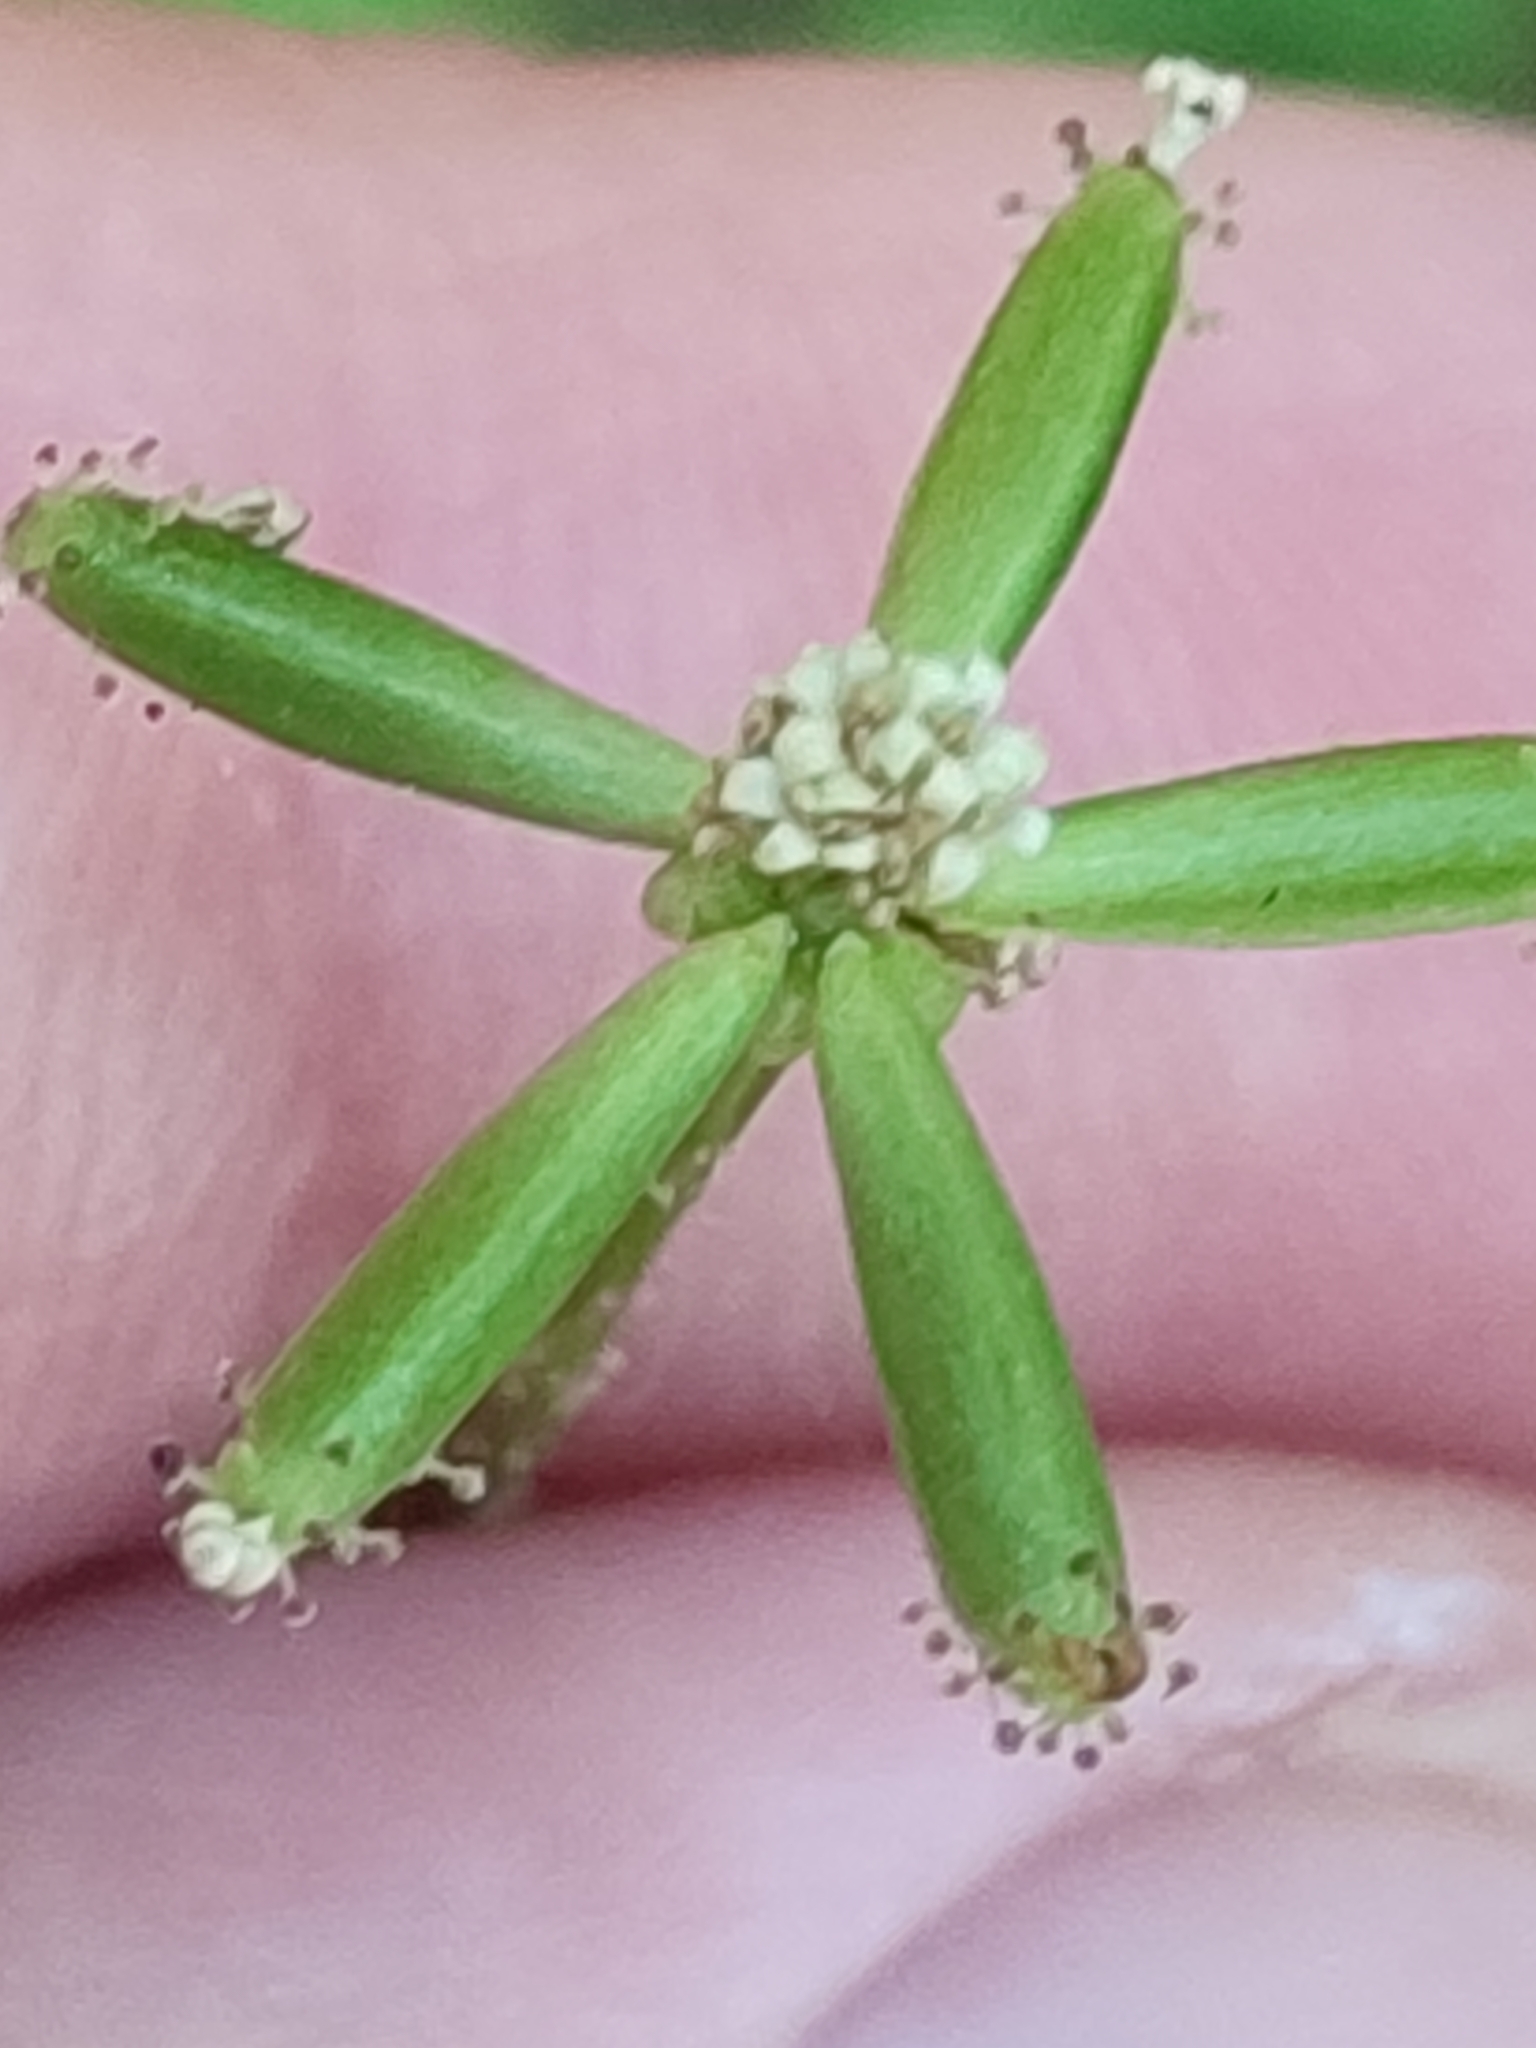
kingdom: Plantae
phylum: Tracheophyta
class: Magnoliopsida
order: Asterales
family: Asteraceae
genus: Adenocaulon
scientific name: Adenocaulon bicolor
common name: Trailplant
